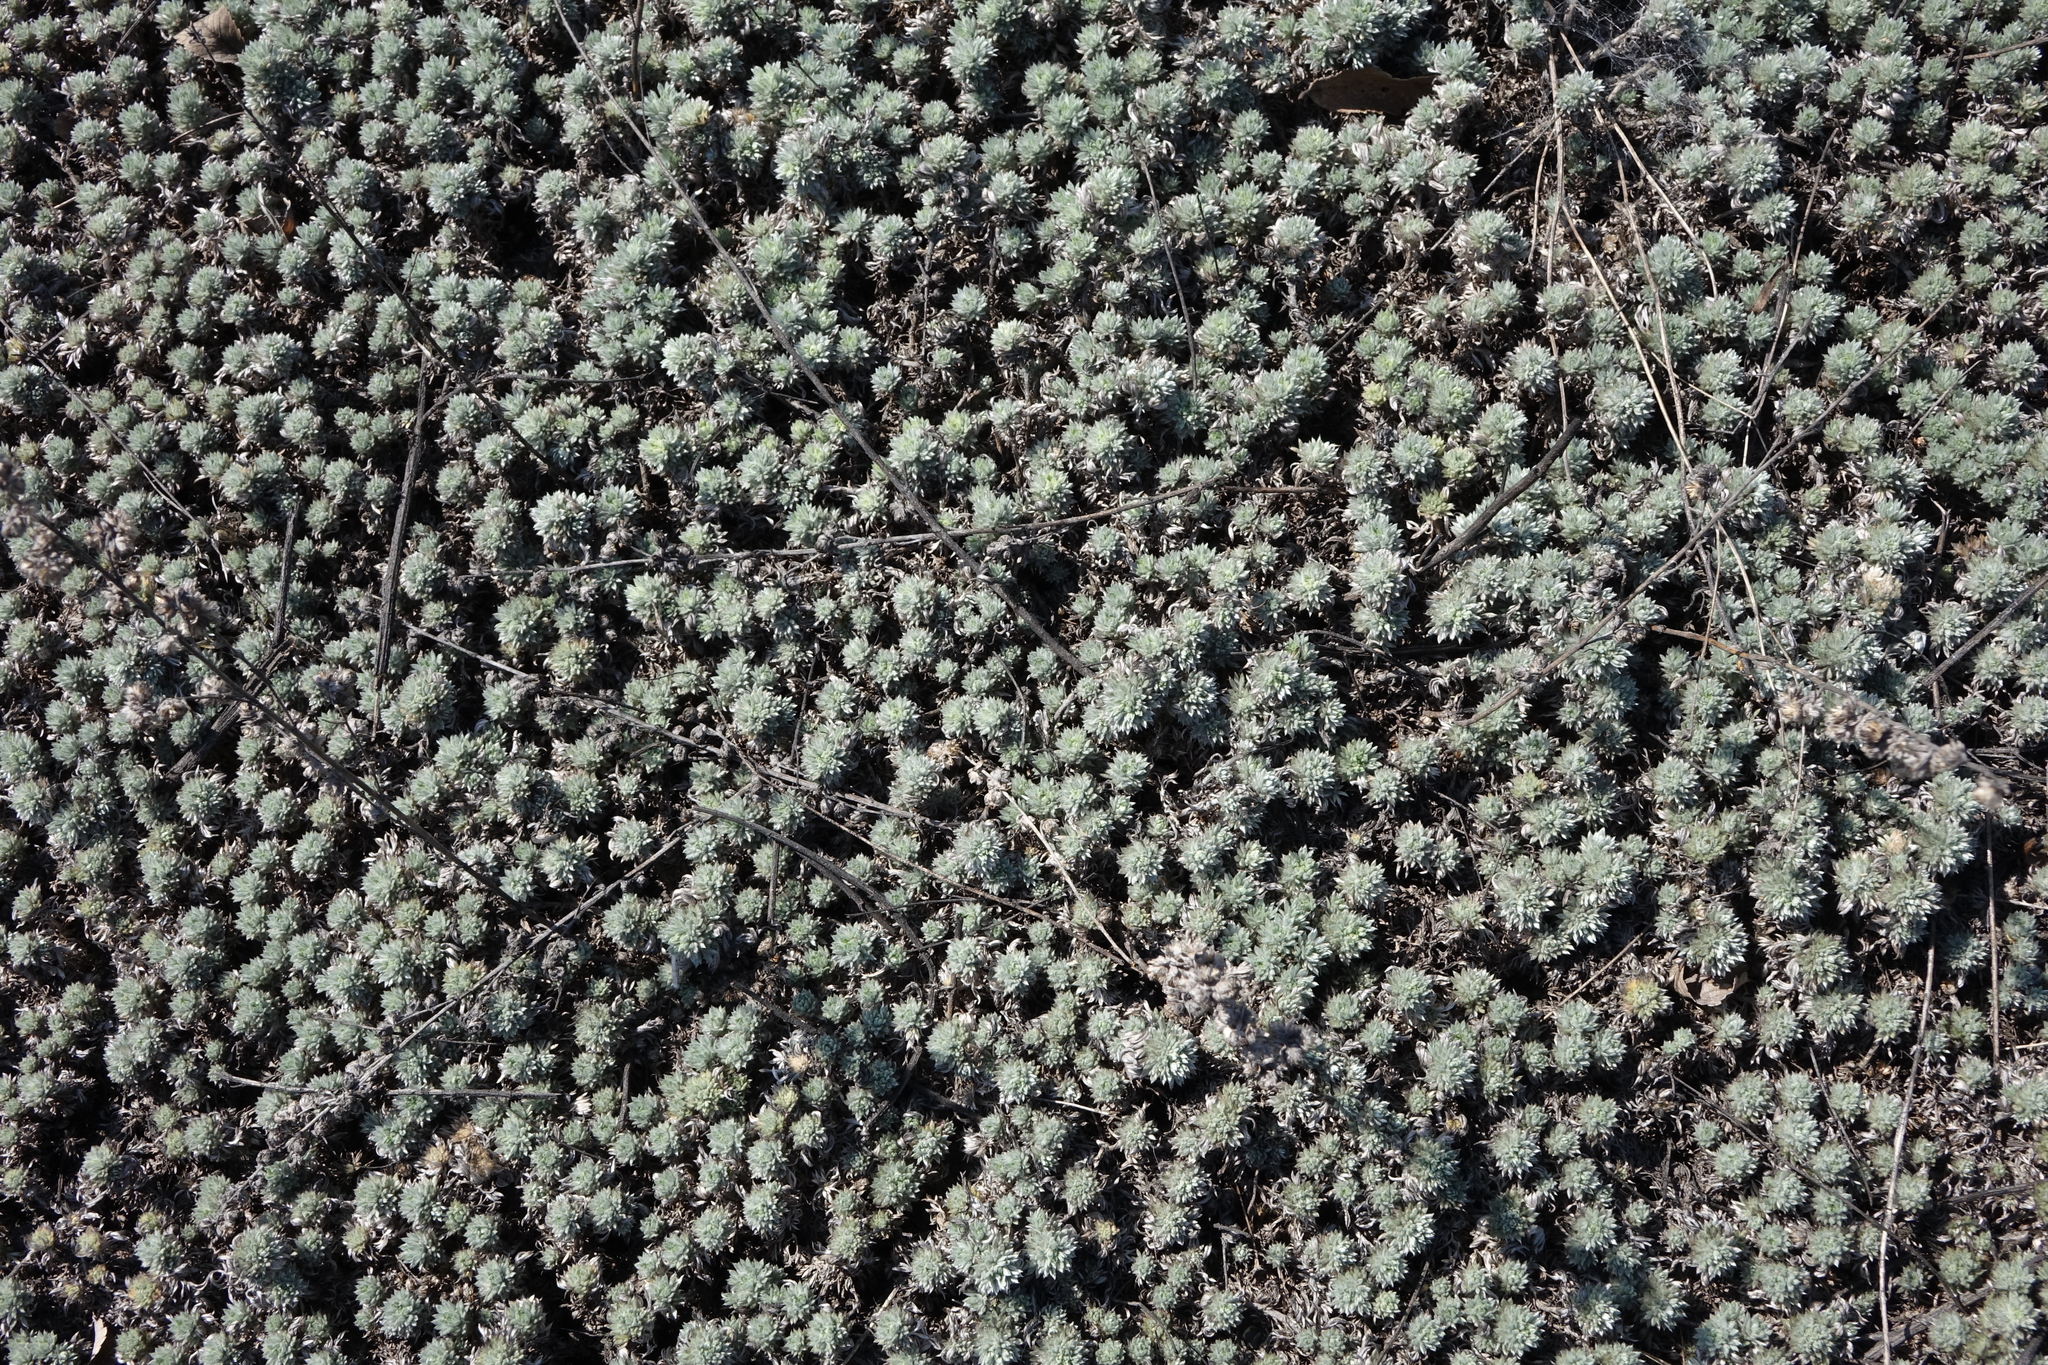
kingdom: Plantae
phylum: Tracheophyta
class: Magnoliopsida
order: Asterales
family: Asteraceae
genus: Artemisia
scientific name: Artemisia frigida
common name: Prairie sagewort
